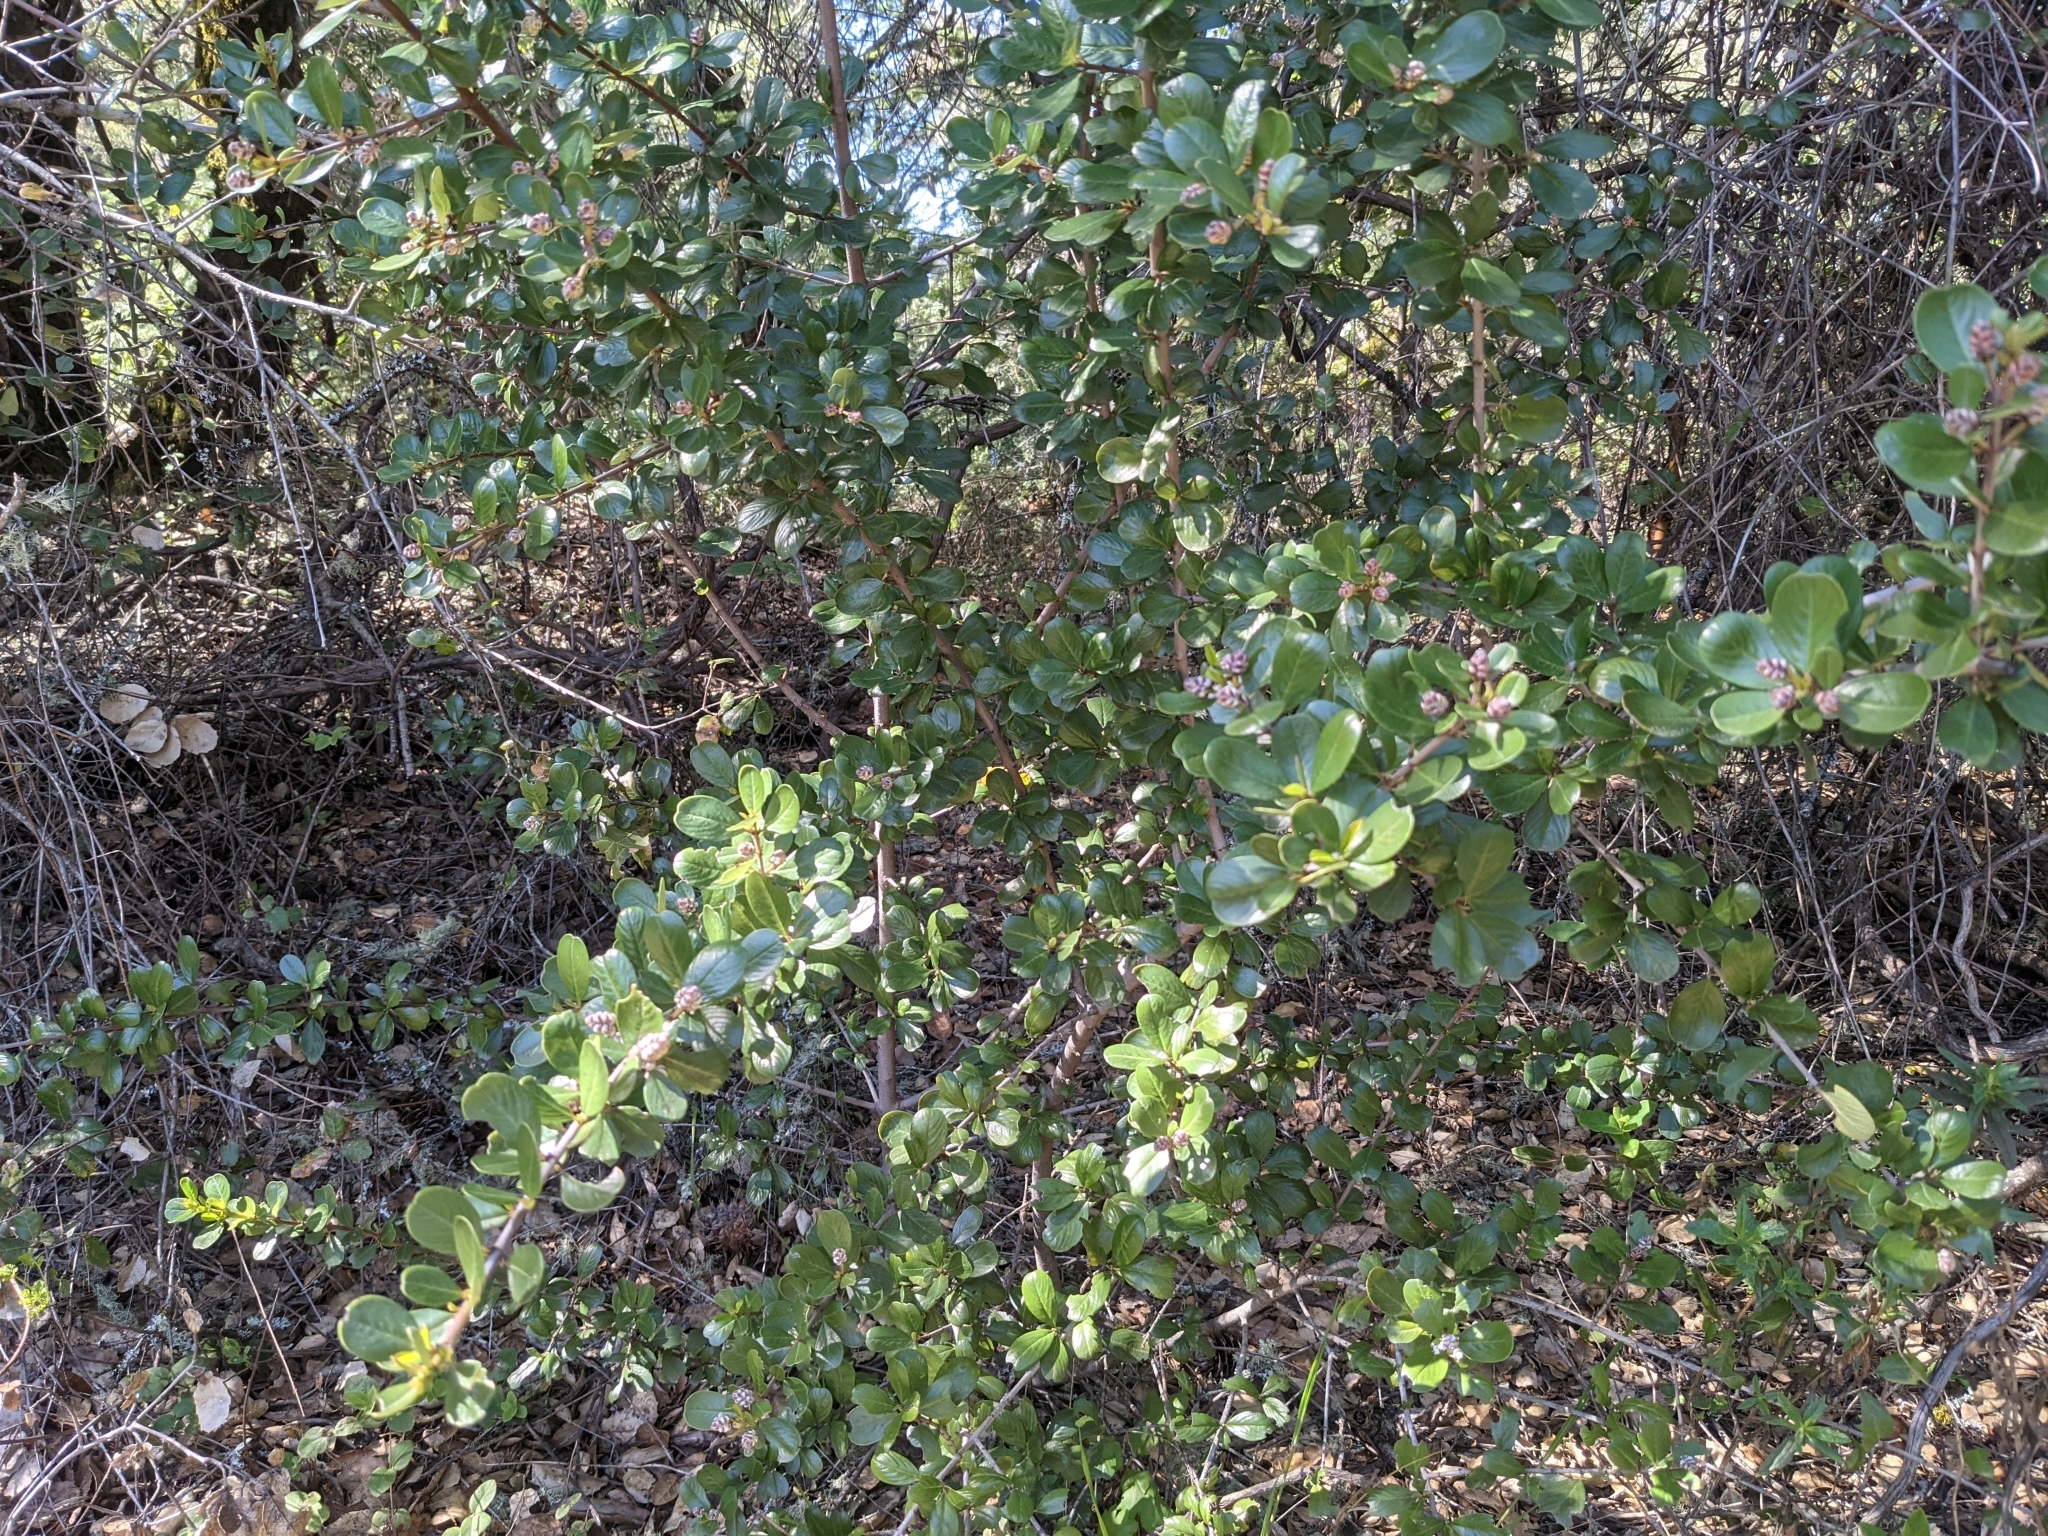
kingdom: Plantae
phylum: Tracheophyta
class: Magnoliopsida
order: Rosales
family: Rhamnaceae
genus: Ceanothus
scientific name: Ceanothus cuneatus
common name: Cuneate ceanothus
